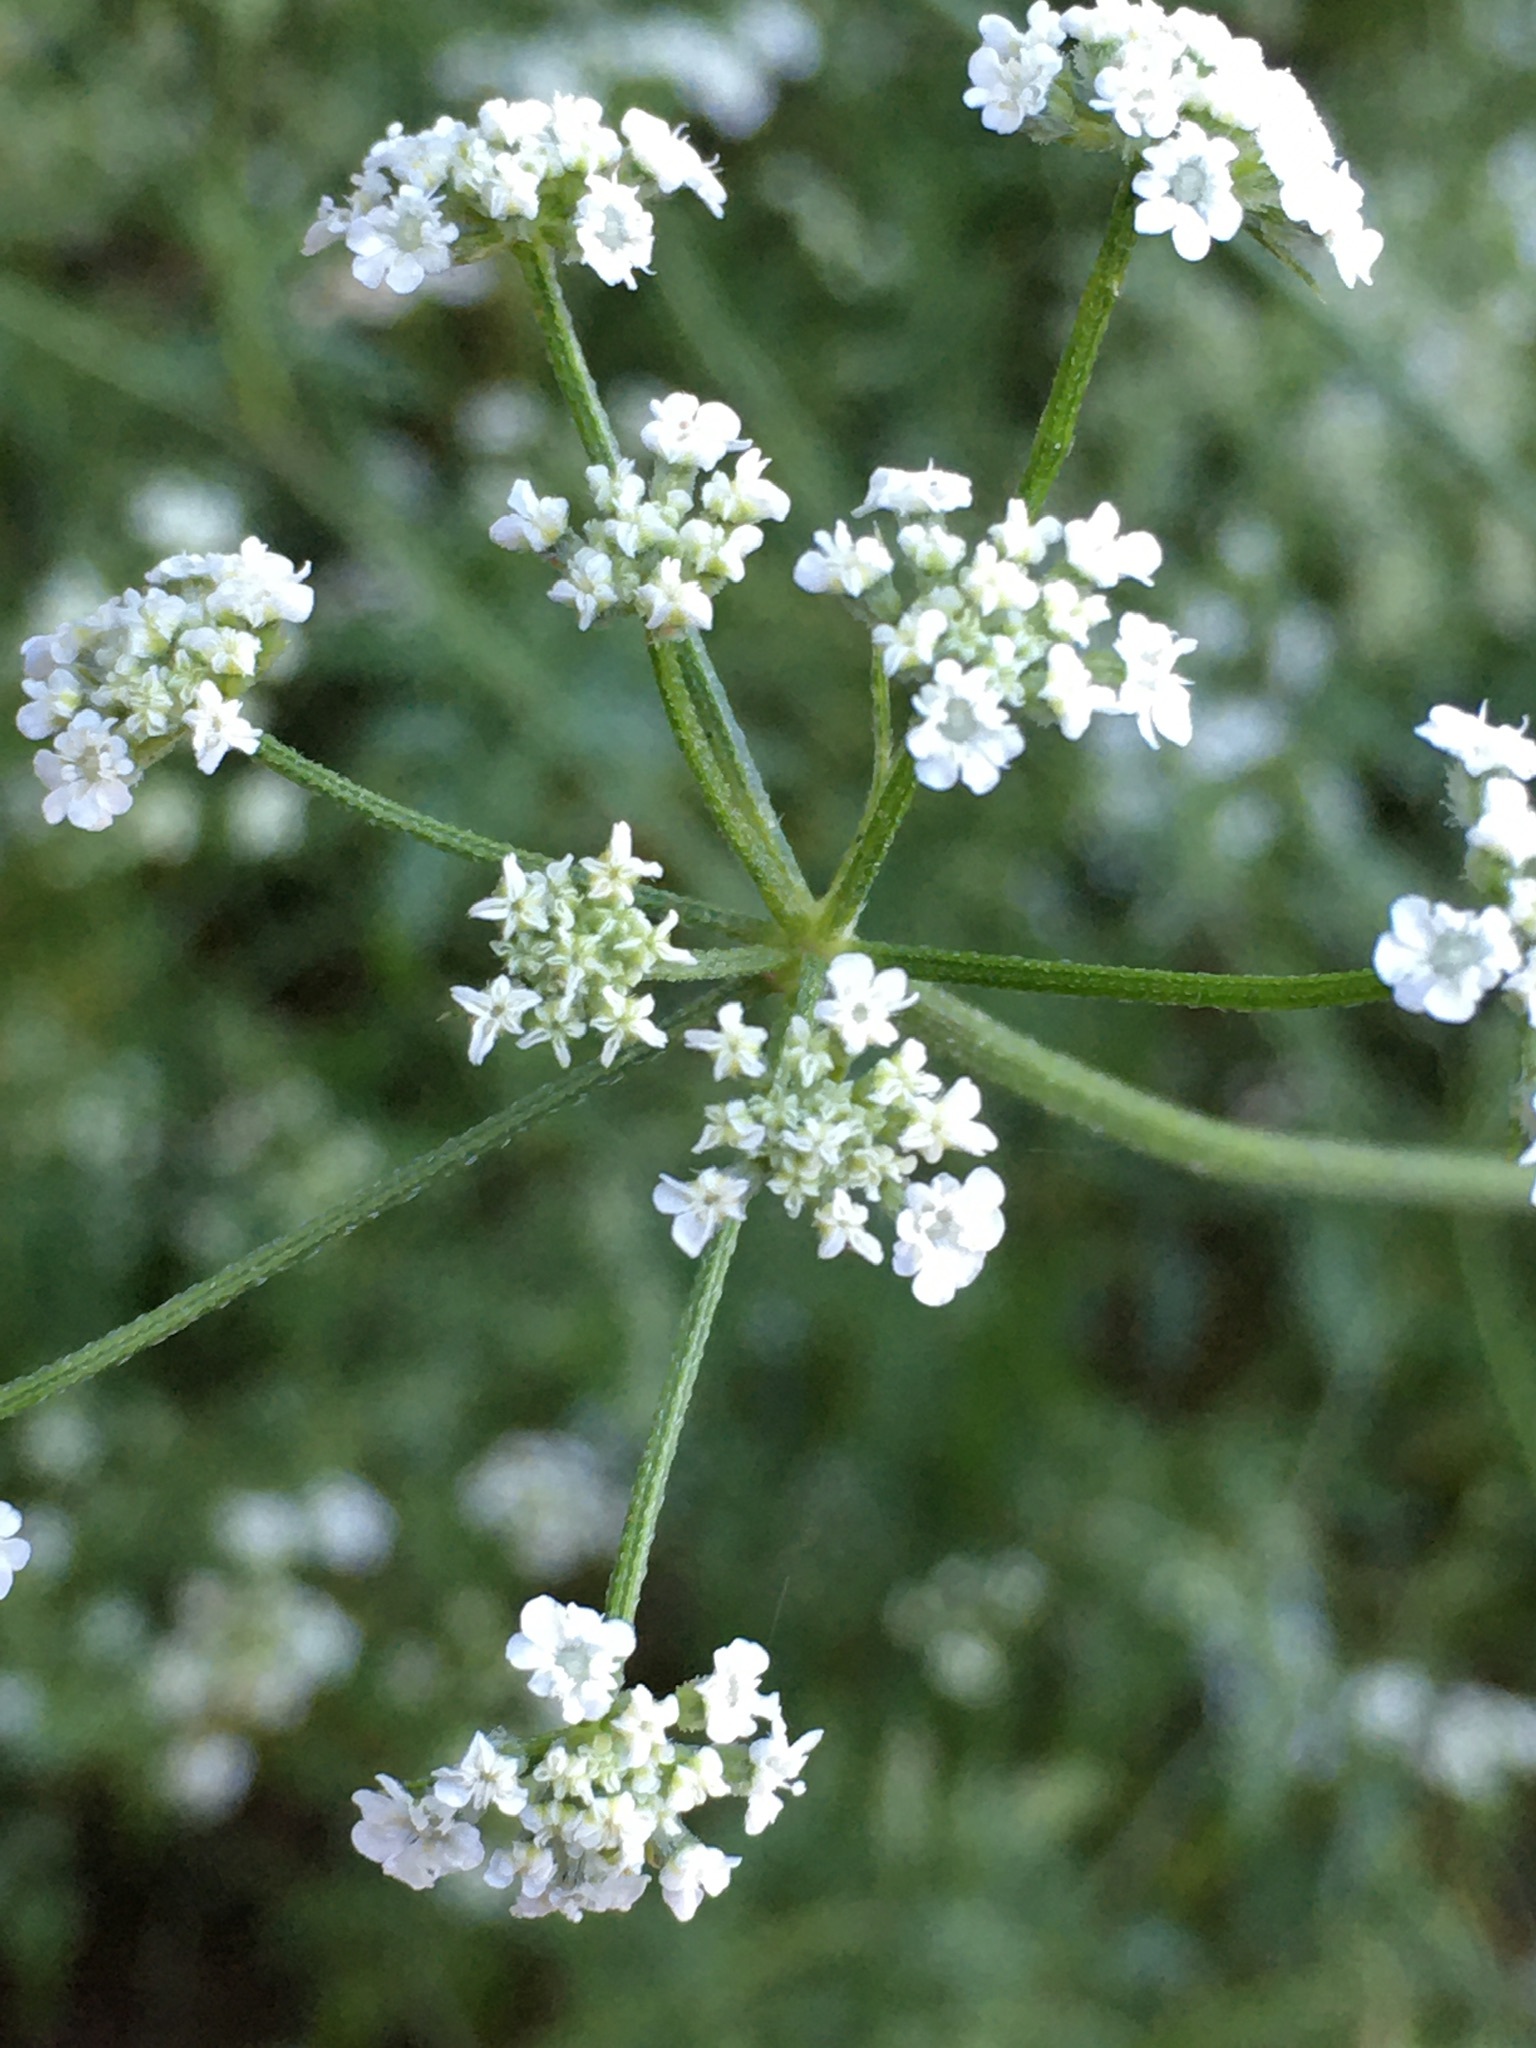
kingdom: Plantae
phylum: Tracheophyta
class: Magnoliopsida
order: Apiales
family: Apiaceae
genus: Torilis
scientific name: Torilis arvensis
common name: Spreading hedge-parsley
